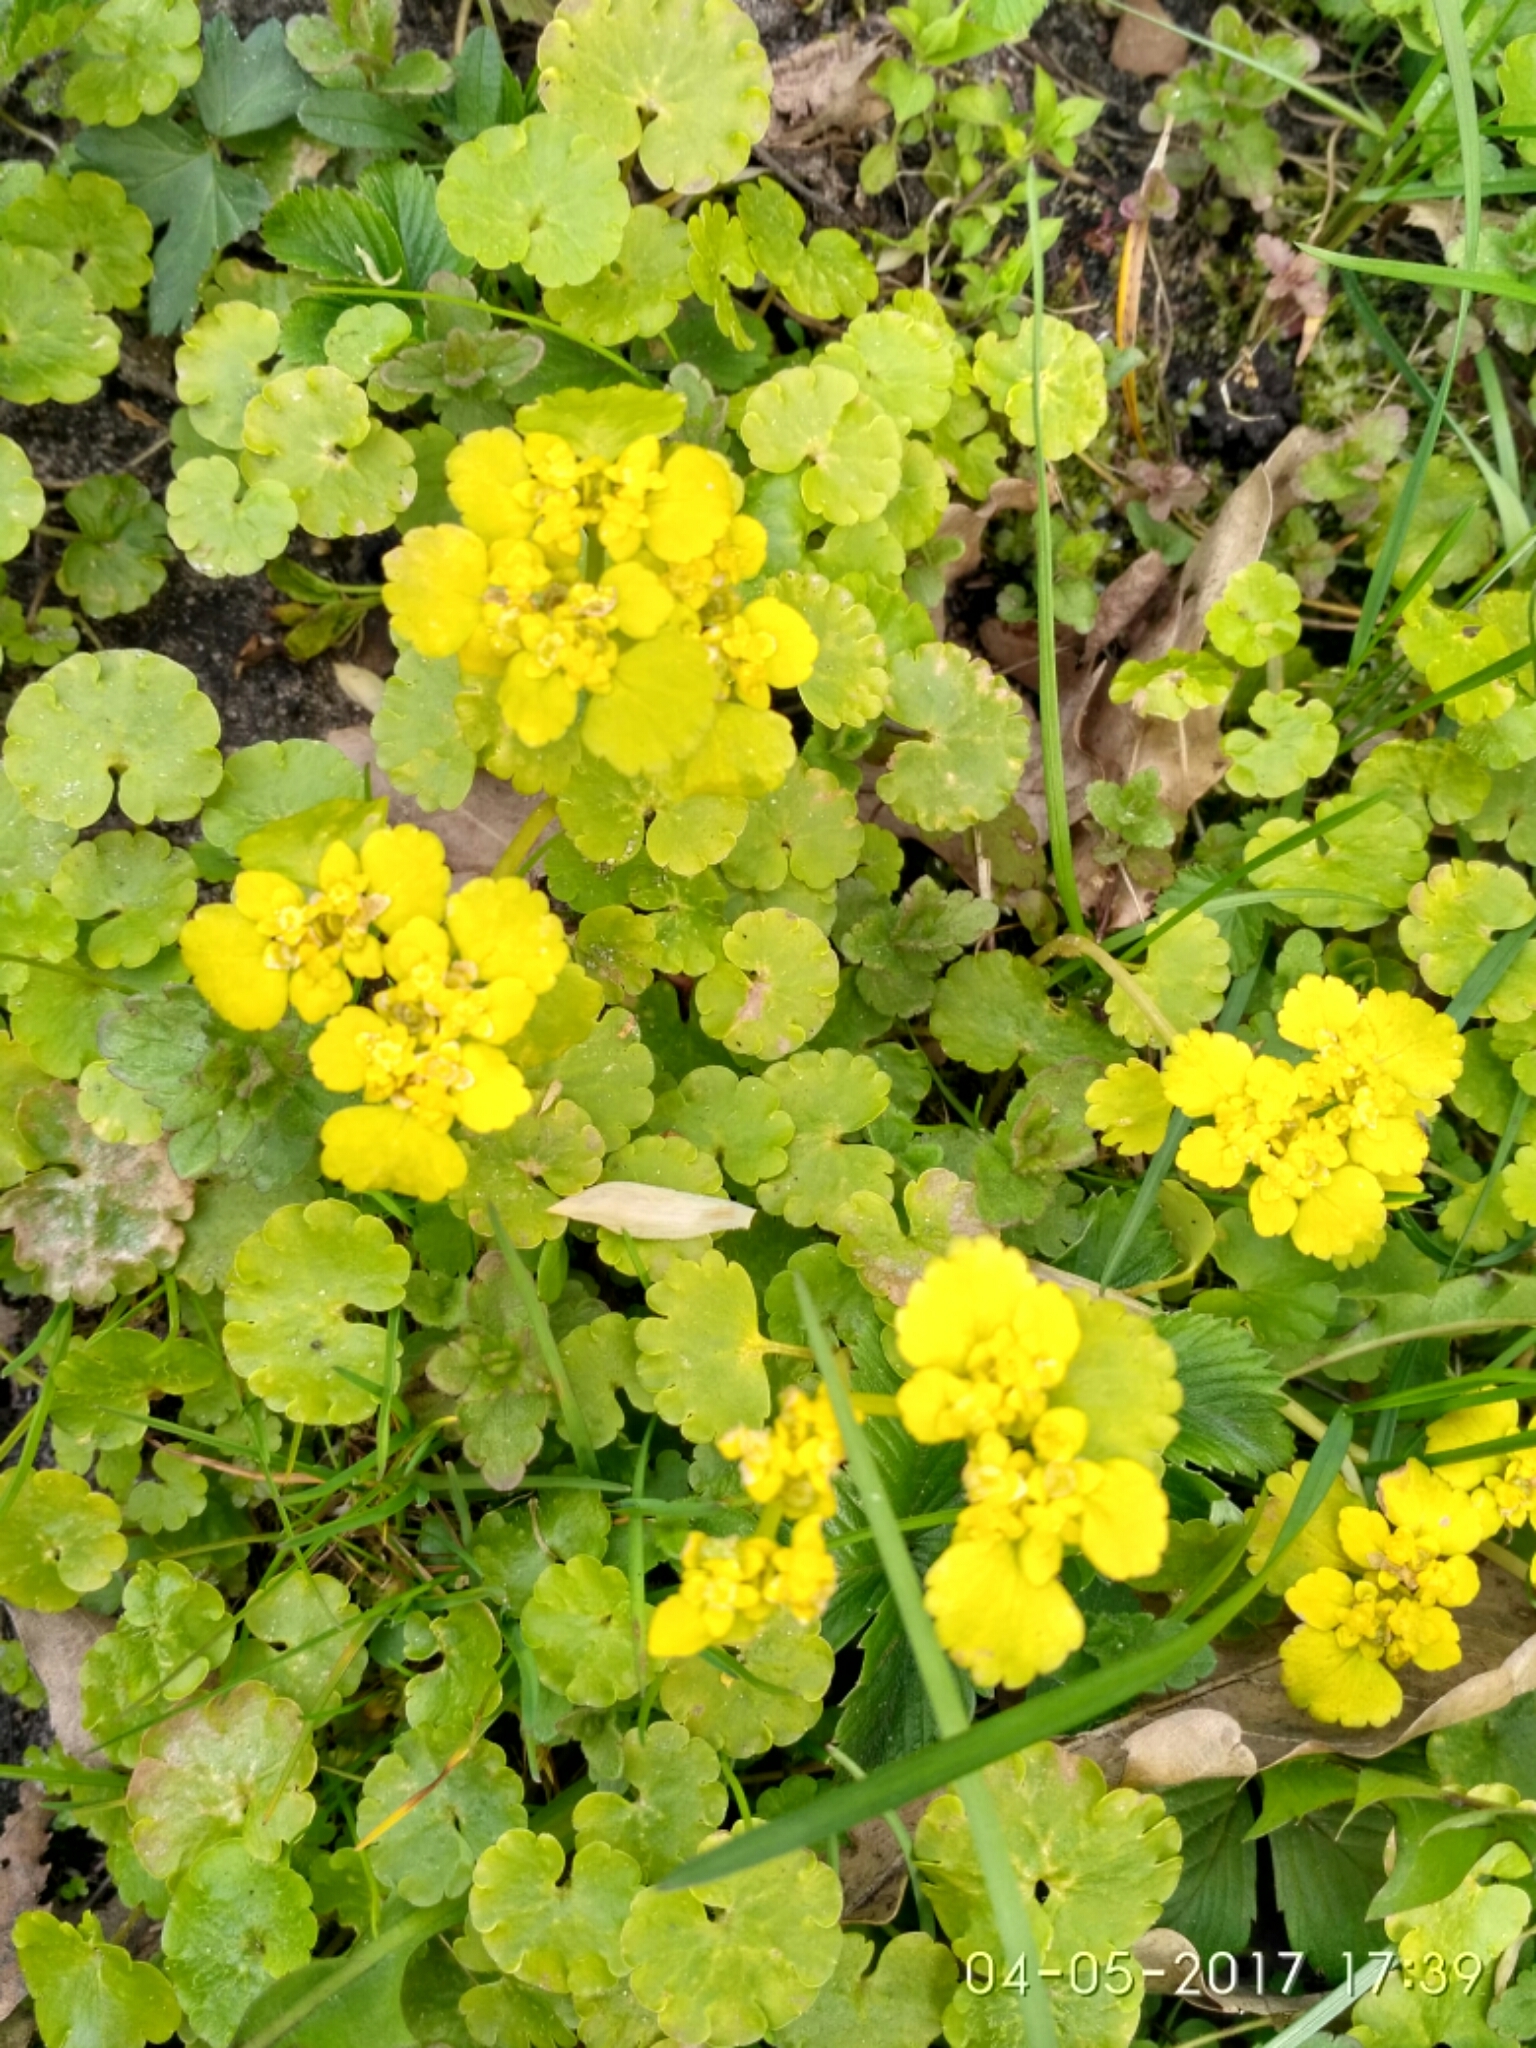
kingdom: Plantae
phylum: Tracheophyta
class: Magnoliopsida
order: Saxifragales
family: Saxifragaceae
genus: Chrysosplenium
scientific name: Chrysosplenium alternifolium
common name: Alternate-leaved golden-saxifrage
